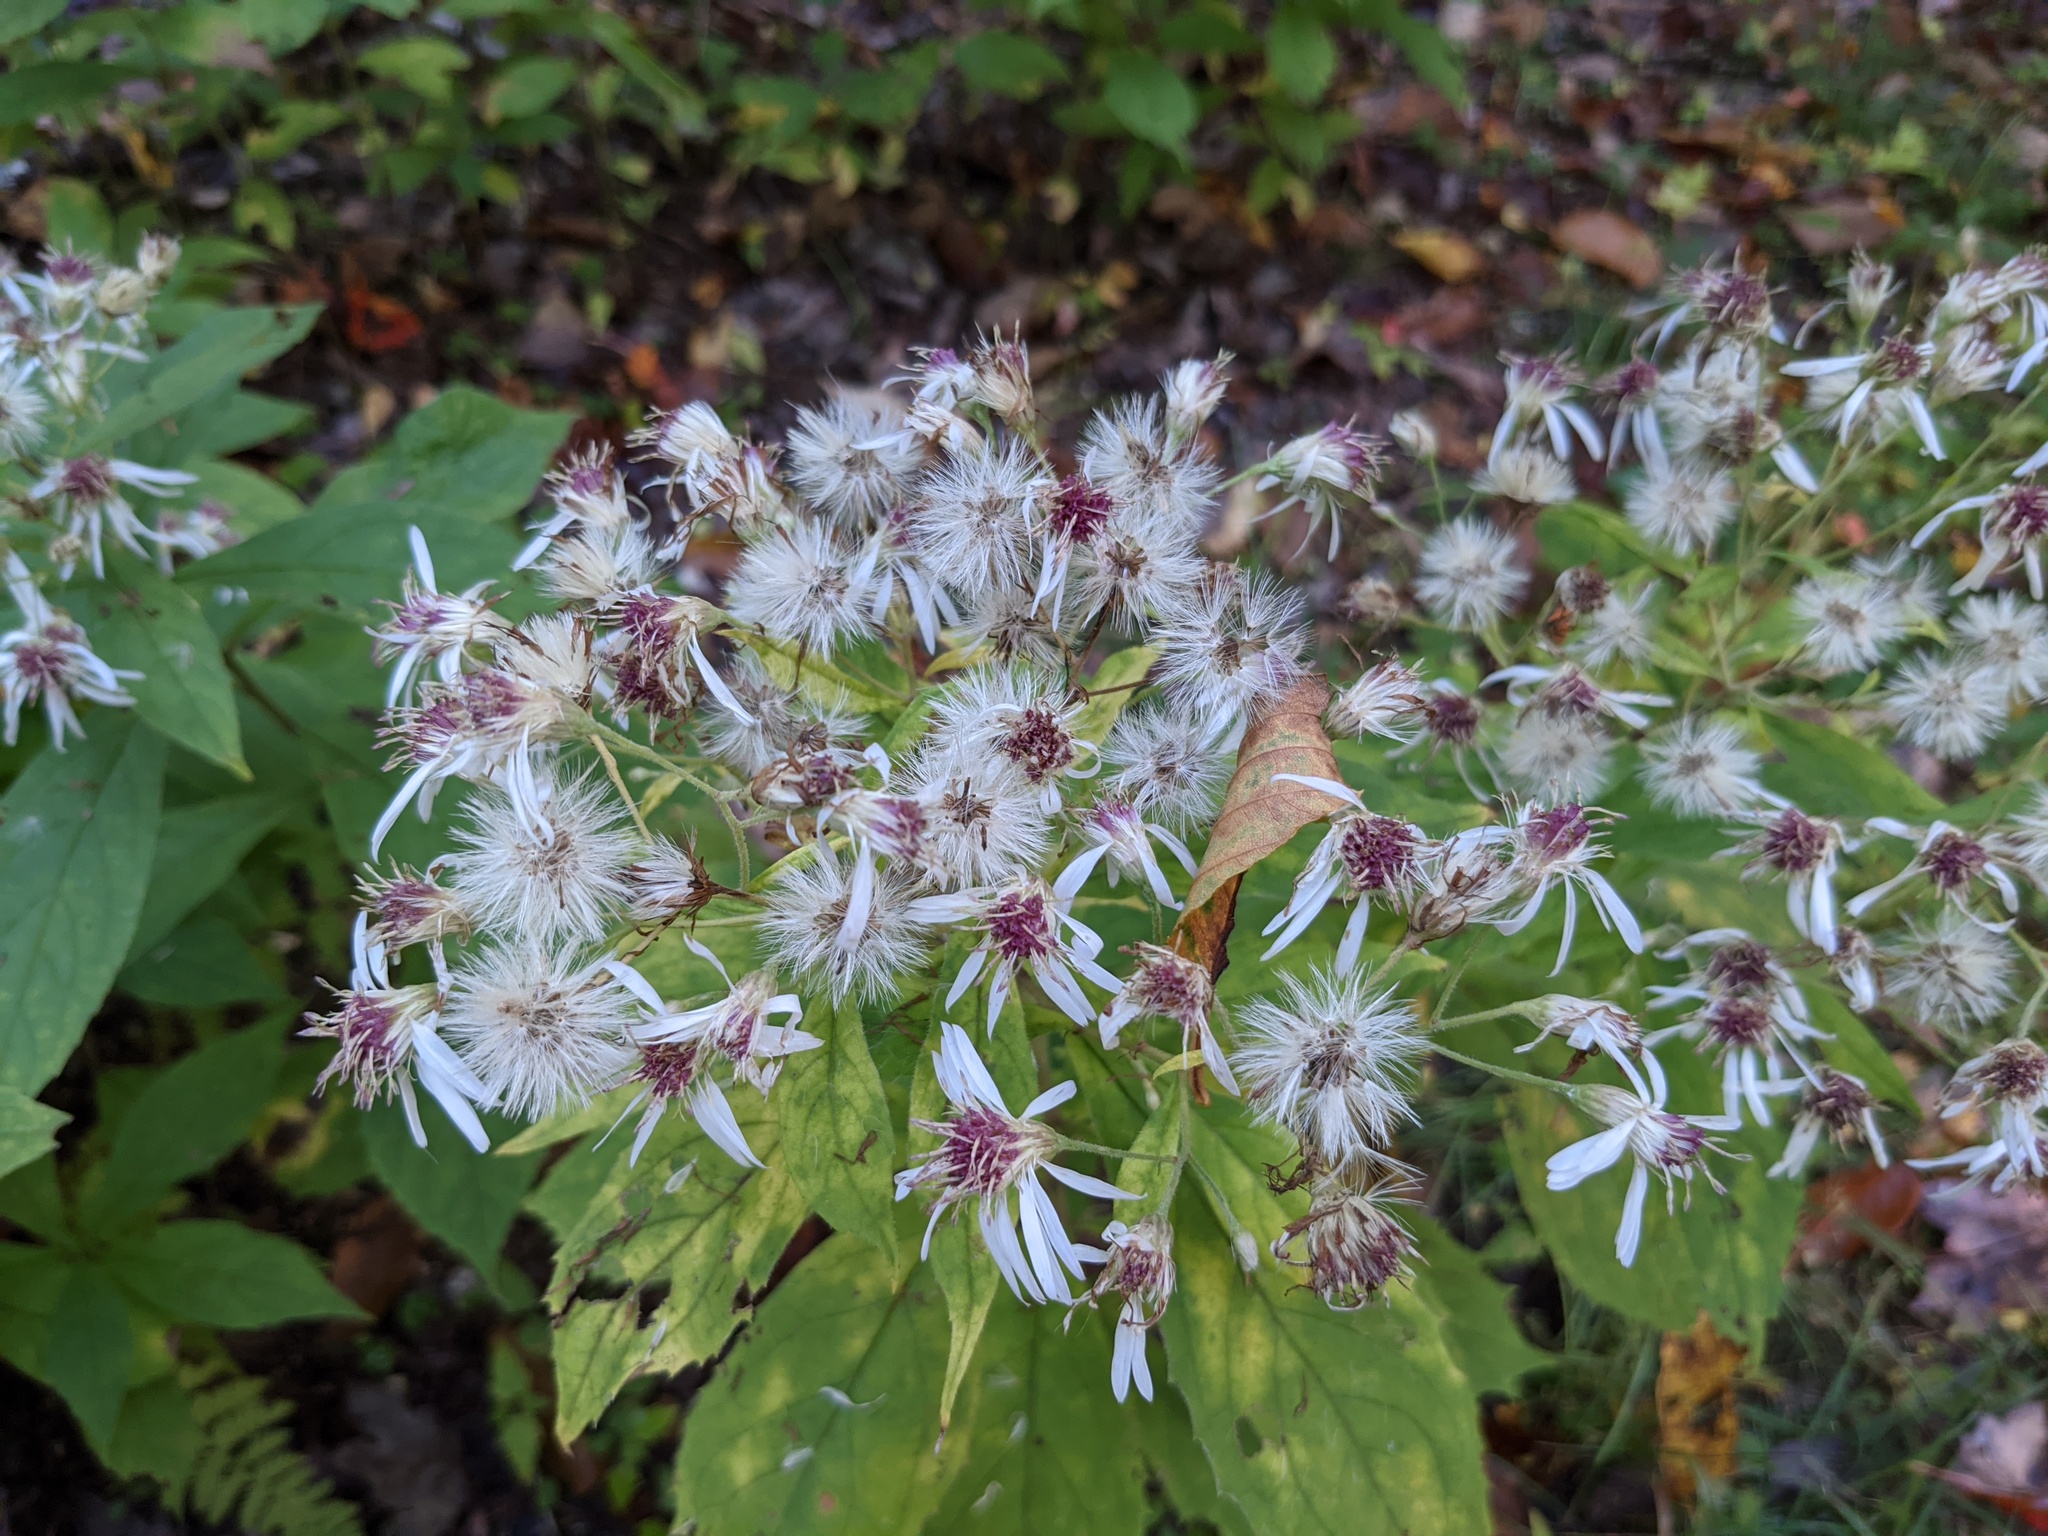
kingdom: Plantae
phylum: Tracheophyta
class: Magnoliopsida
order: Asterales
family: Asteraceae
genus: Oclemena
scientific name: Oclemena acuminata
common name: Mountain aster
